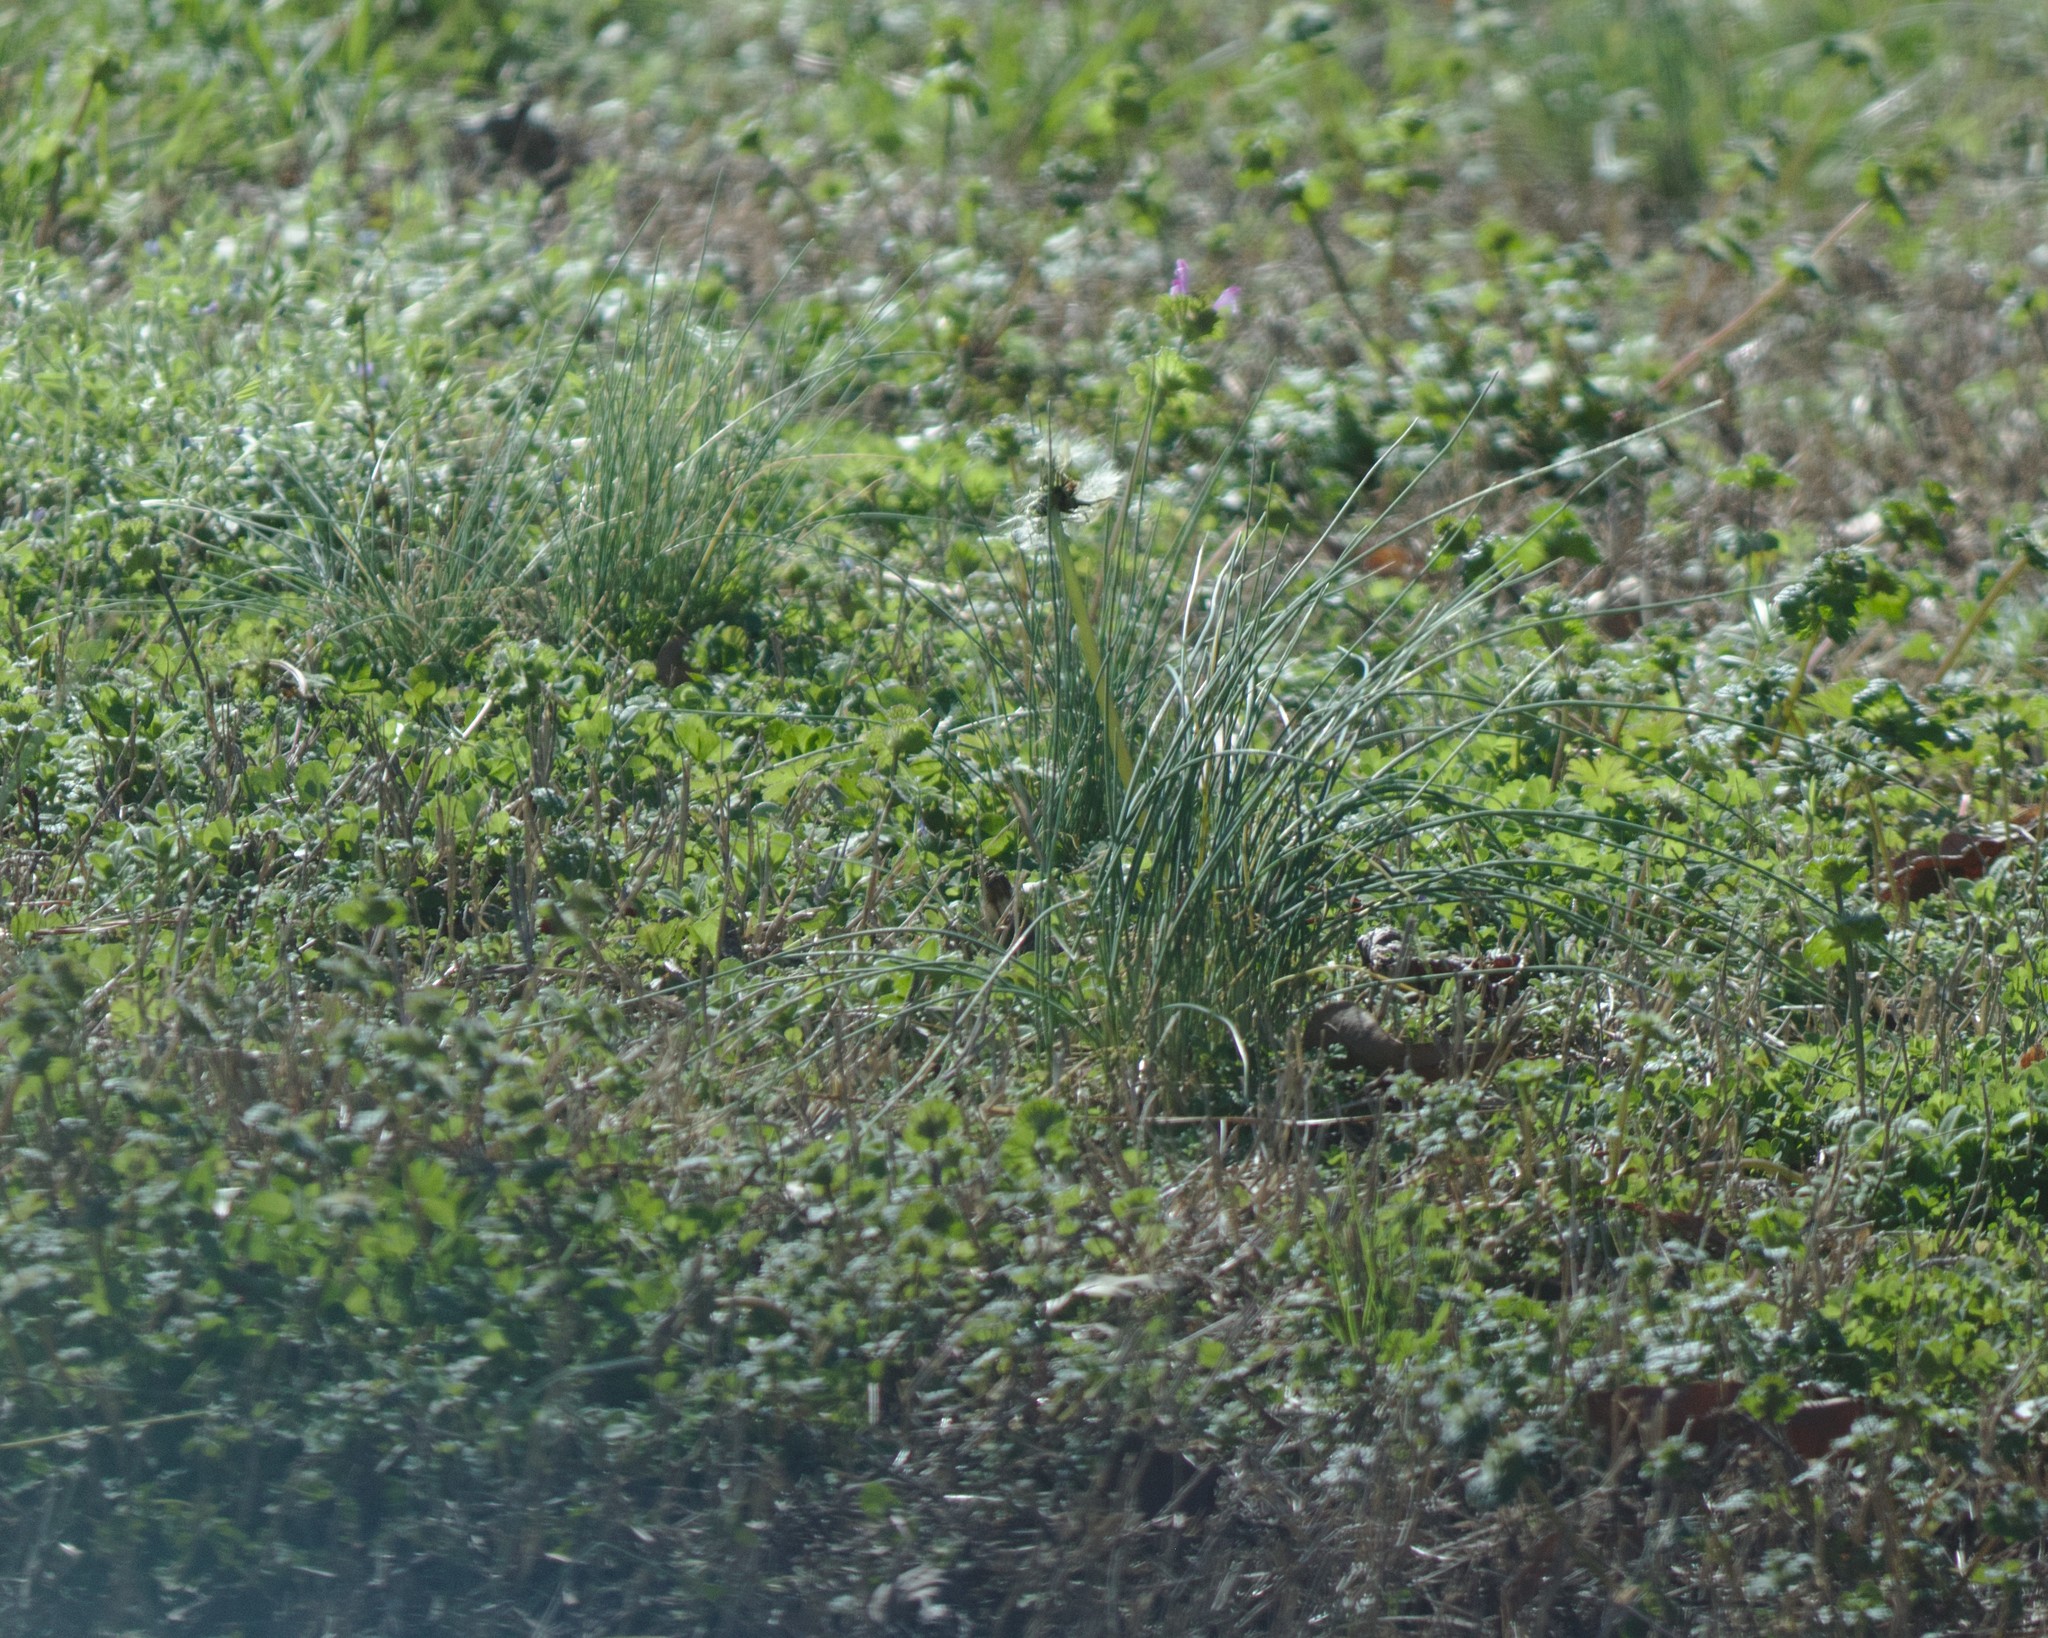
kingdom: Plantae
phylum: Tracheophyta
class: Liliopsida
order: Asparagales
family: Amaryllidaceae
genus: Allium
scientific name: Allium vineale
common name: Crow garlic
